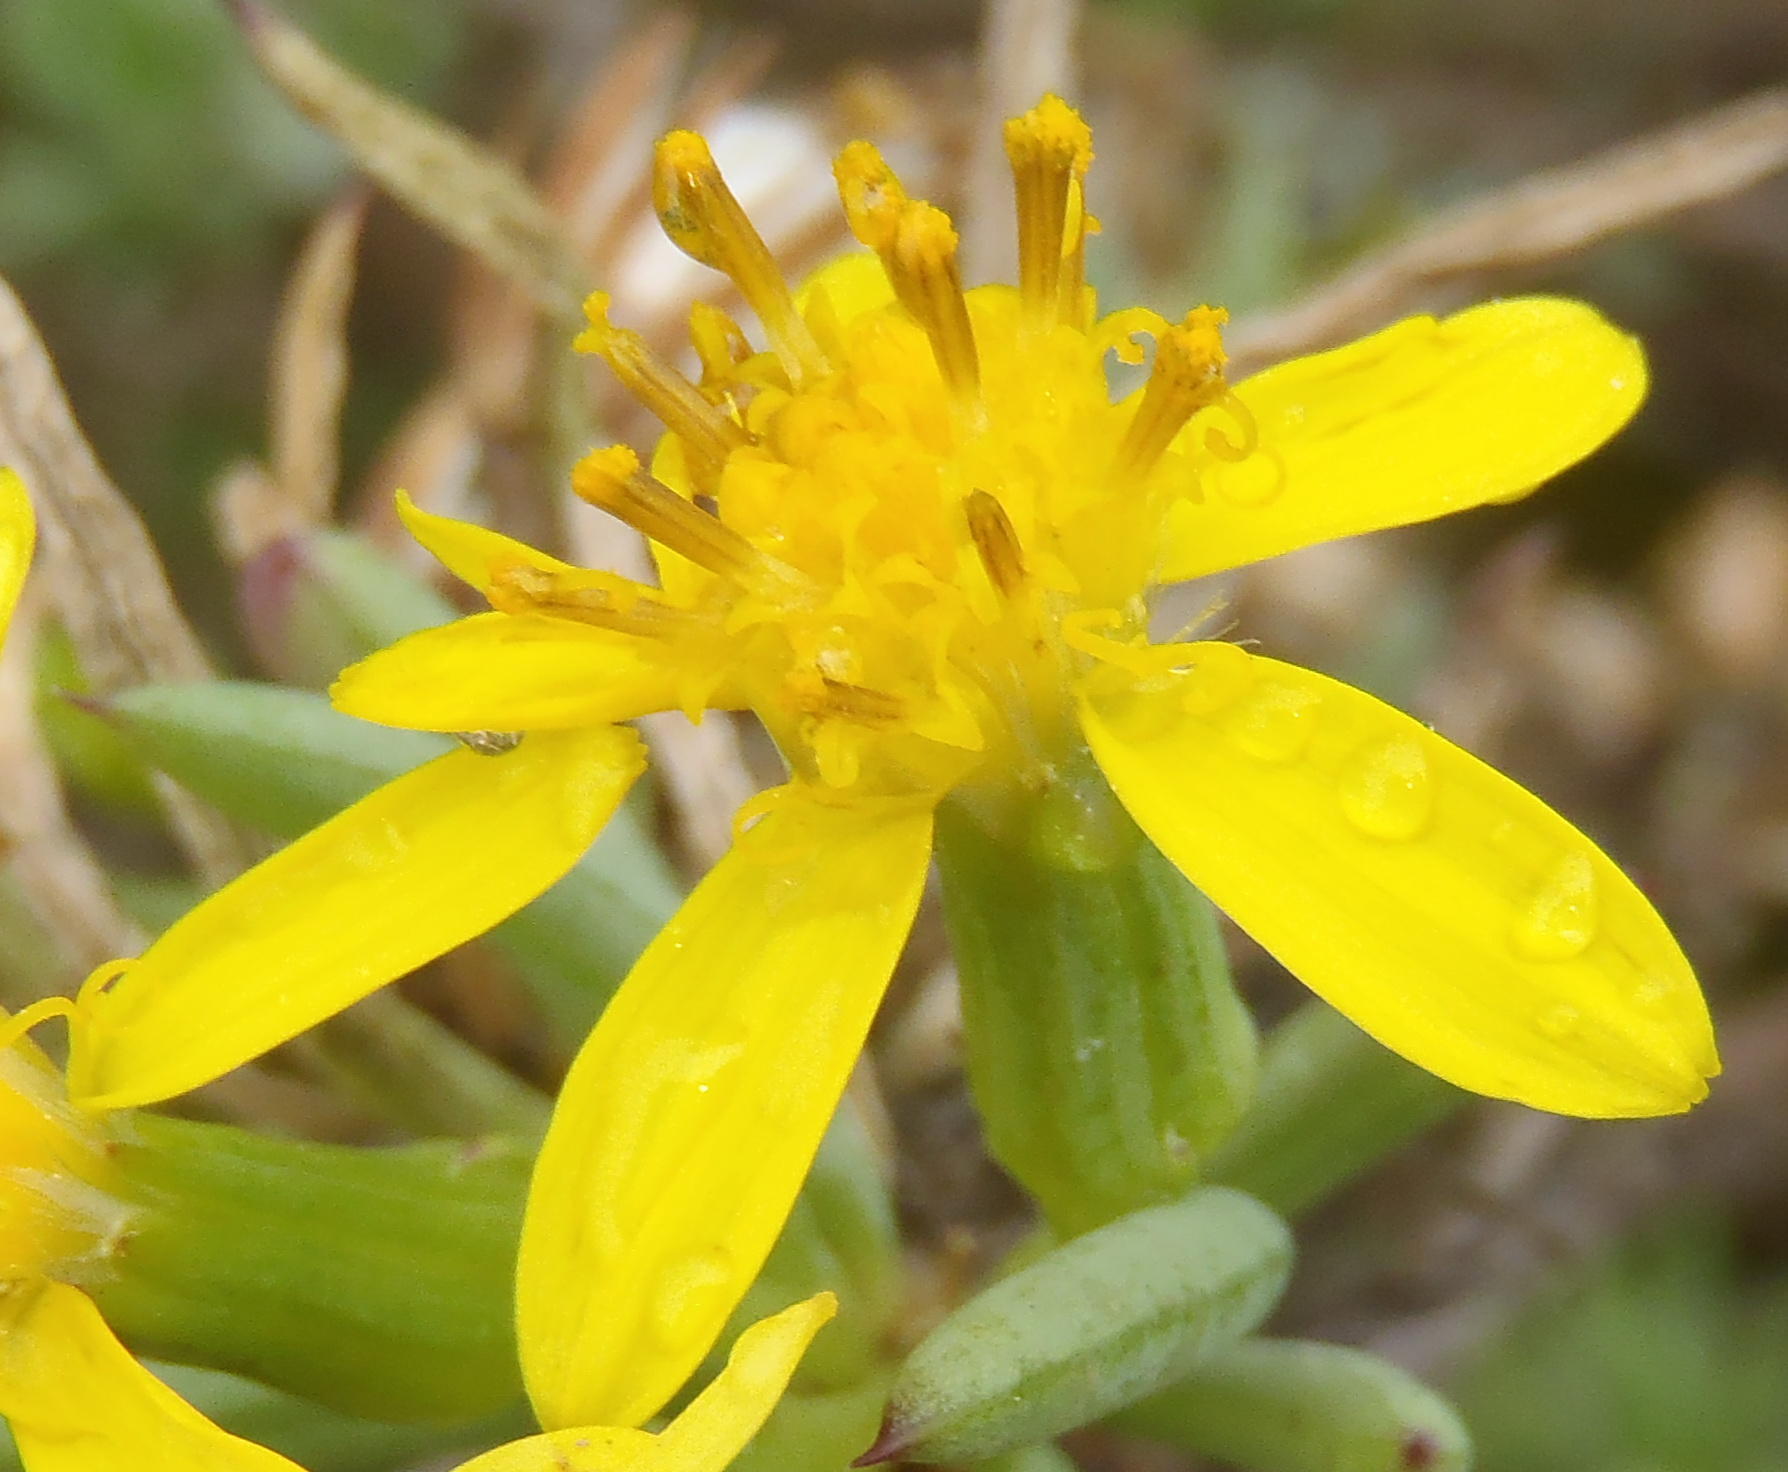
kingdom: Plantae
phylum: Tracheophyta
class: Magnoliopsida
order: Asterales
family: Asteraceae
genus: Senecio
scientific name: Senecio cotyledonis
